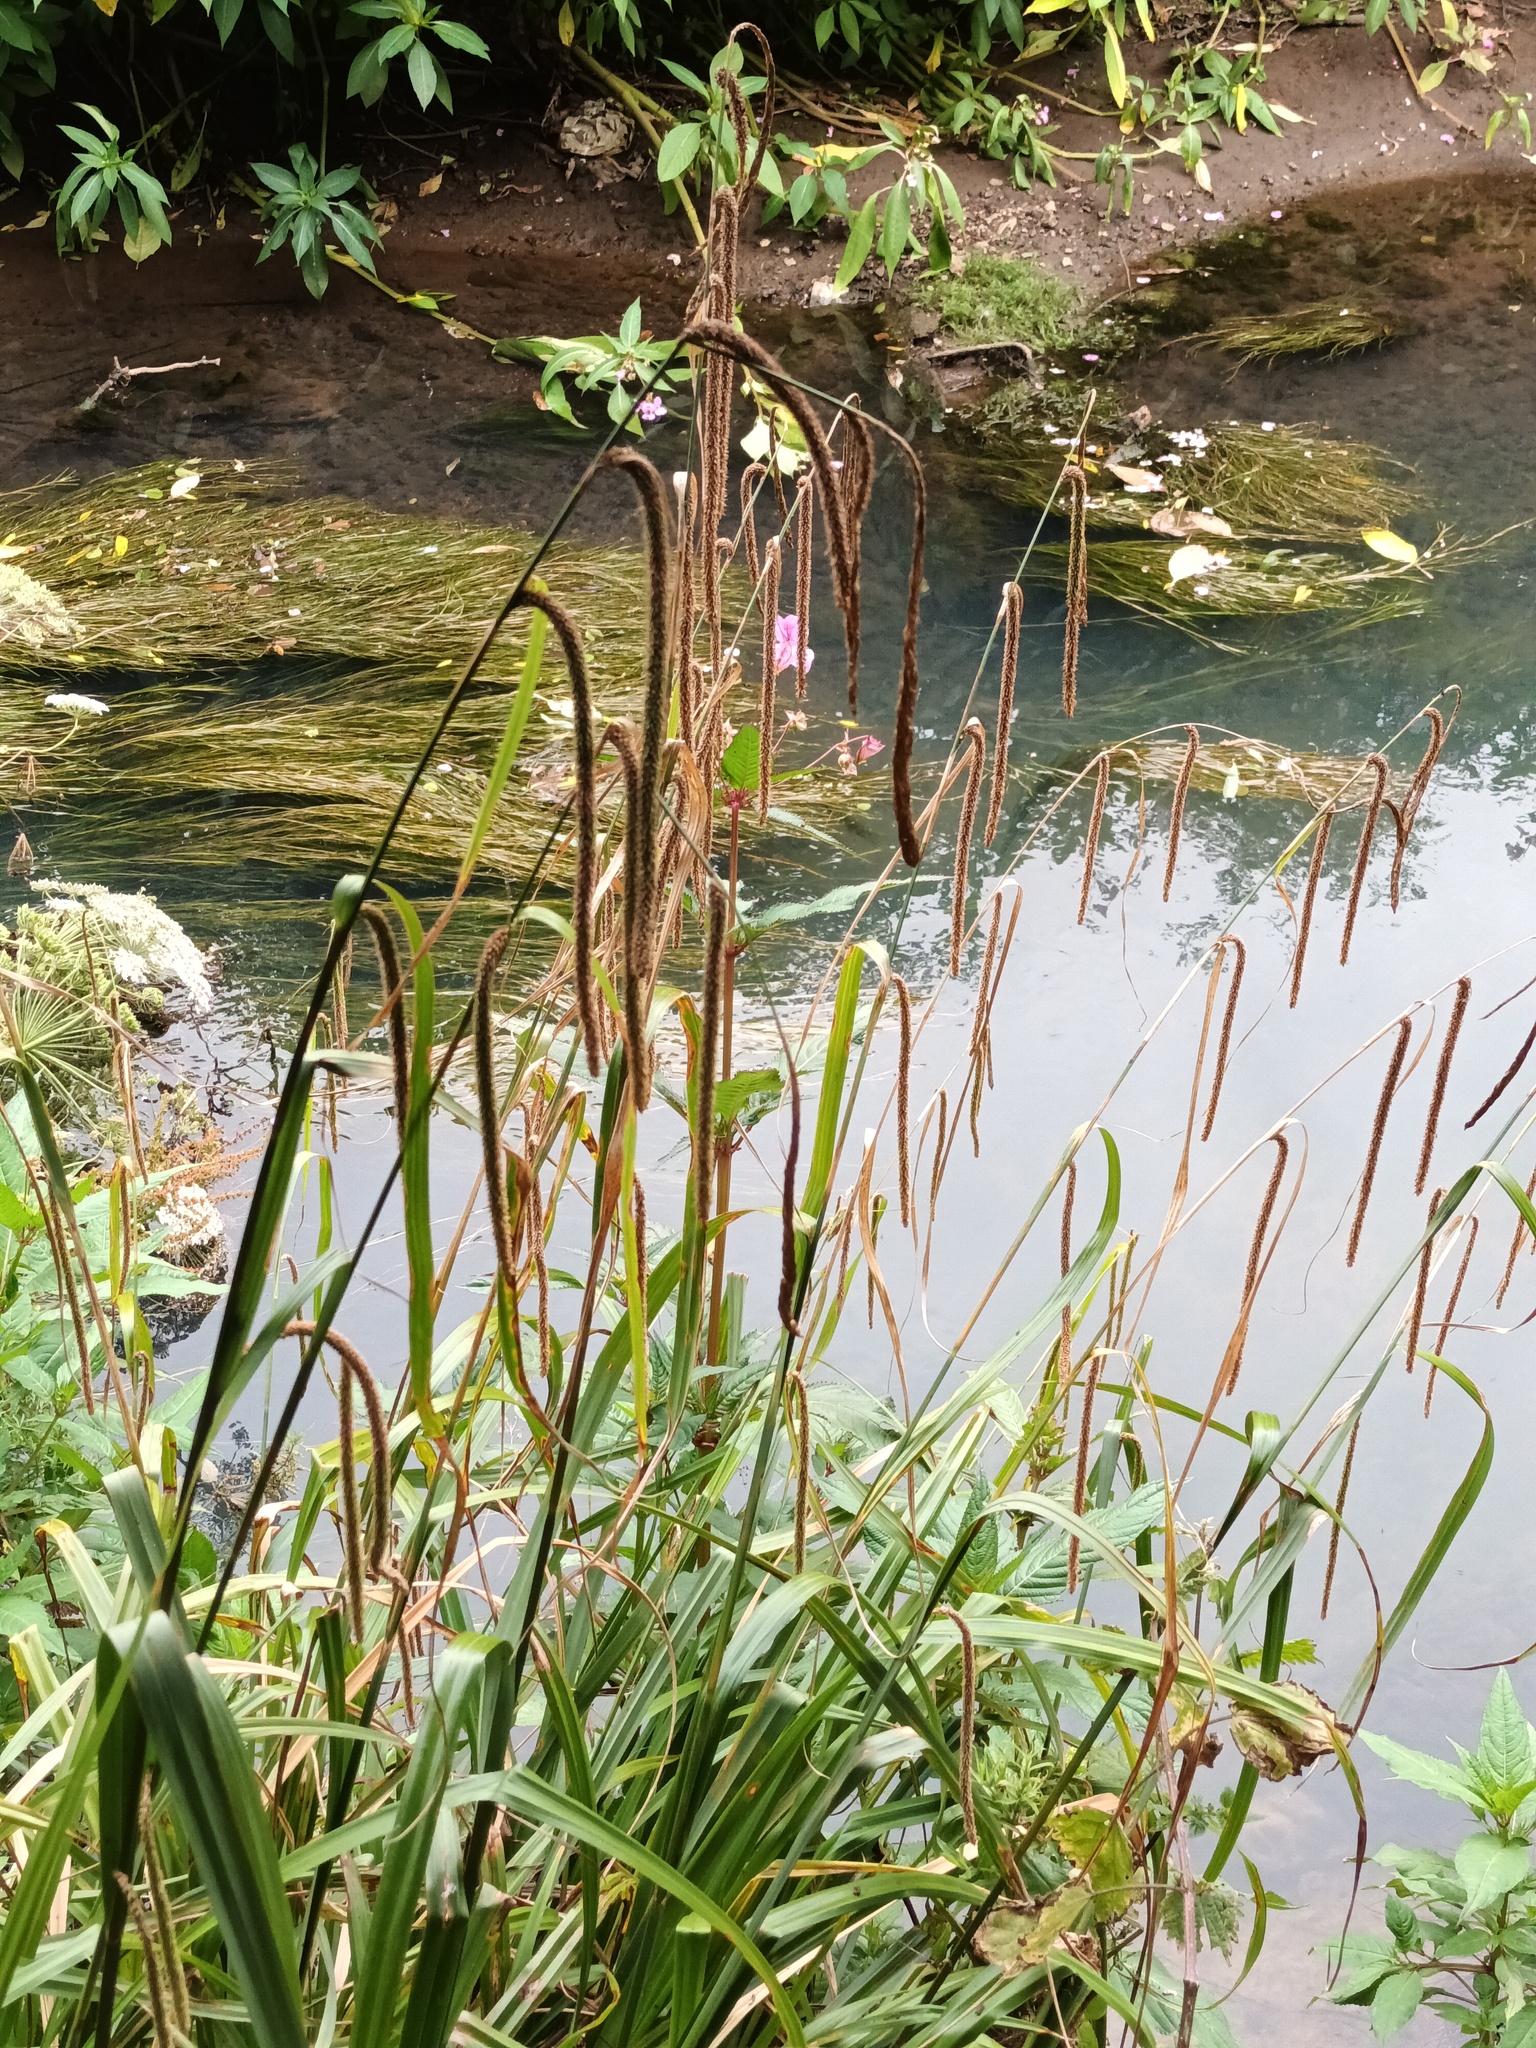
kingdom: Plantae
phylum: Tracheophyta
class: Liliopsida
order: Poales
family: Cyperaceae
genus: Carex
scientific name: Carex pendula
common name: Pendulous sedge
